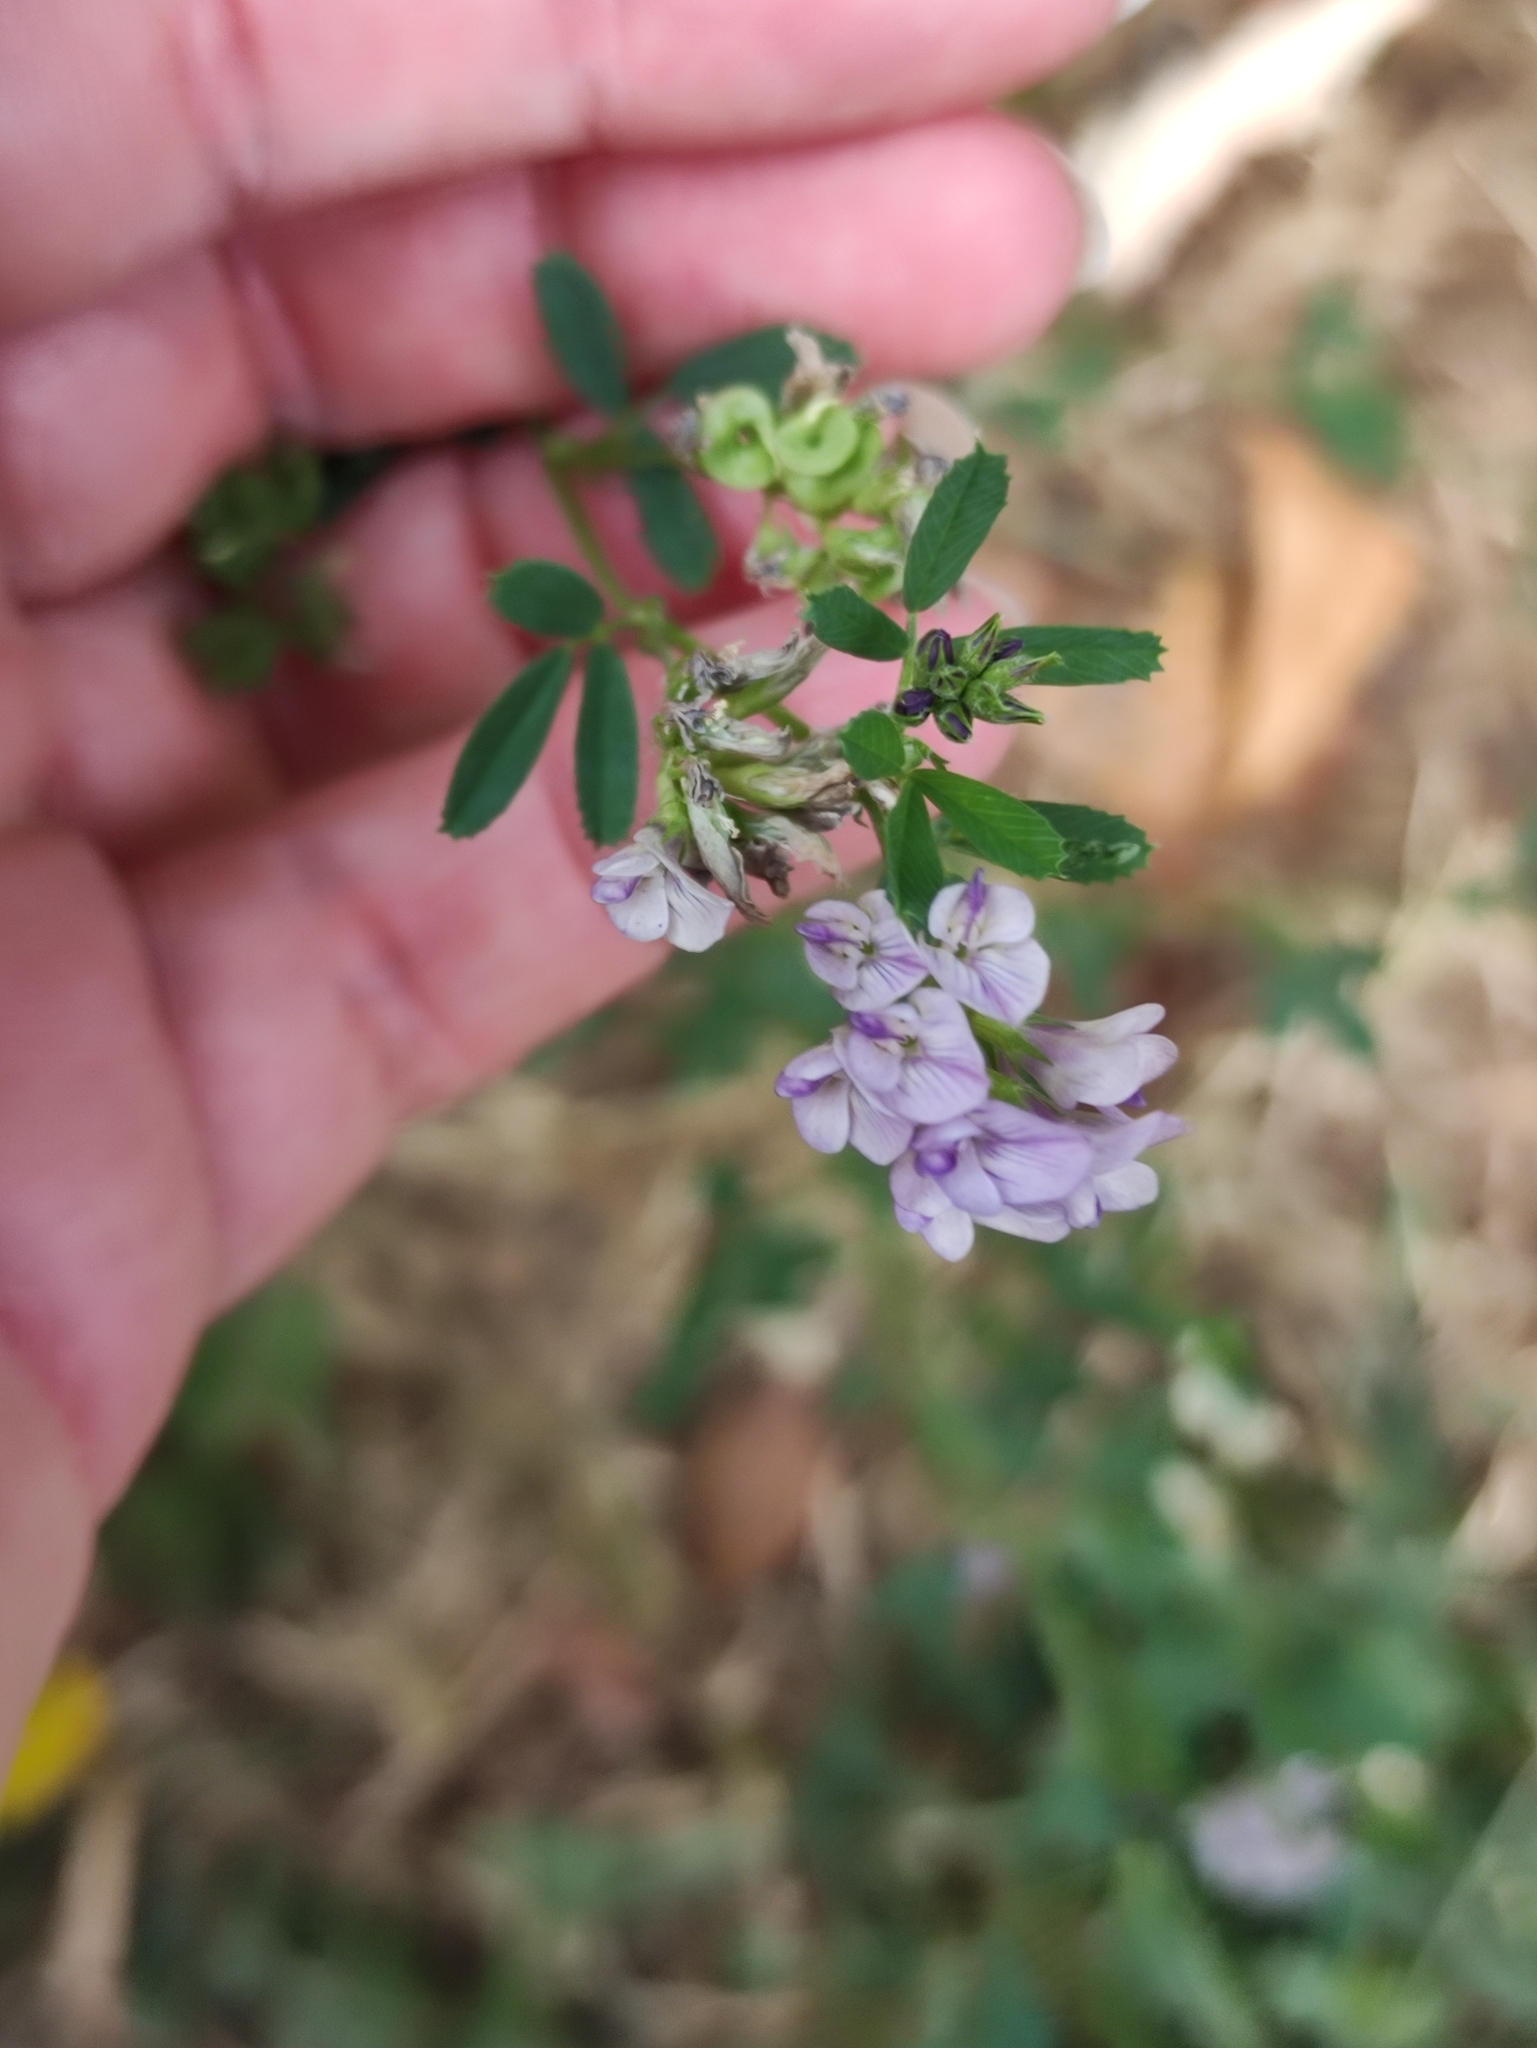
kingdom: Plantae
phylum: Tracheophyta
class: Magnoliopsida
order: Fabales
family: Fabaceae
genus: Medicago
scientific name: Medicago varia
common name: Sand lucerne
